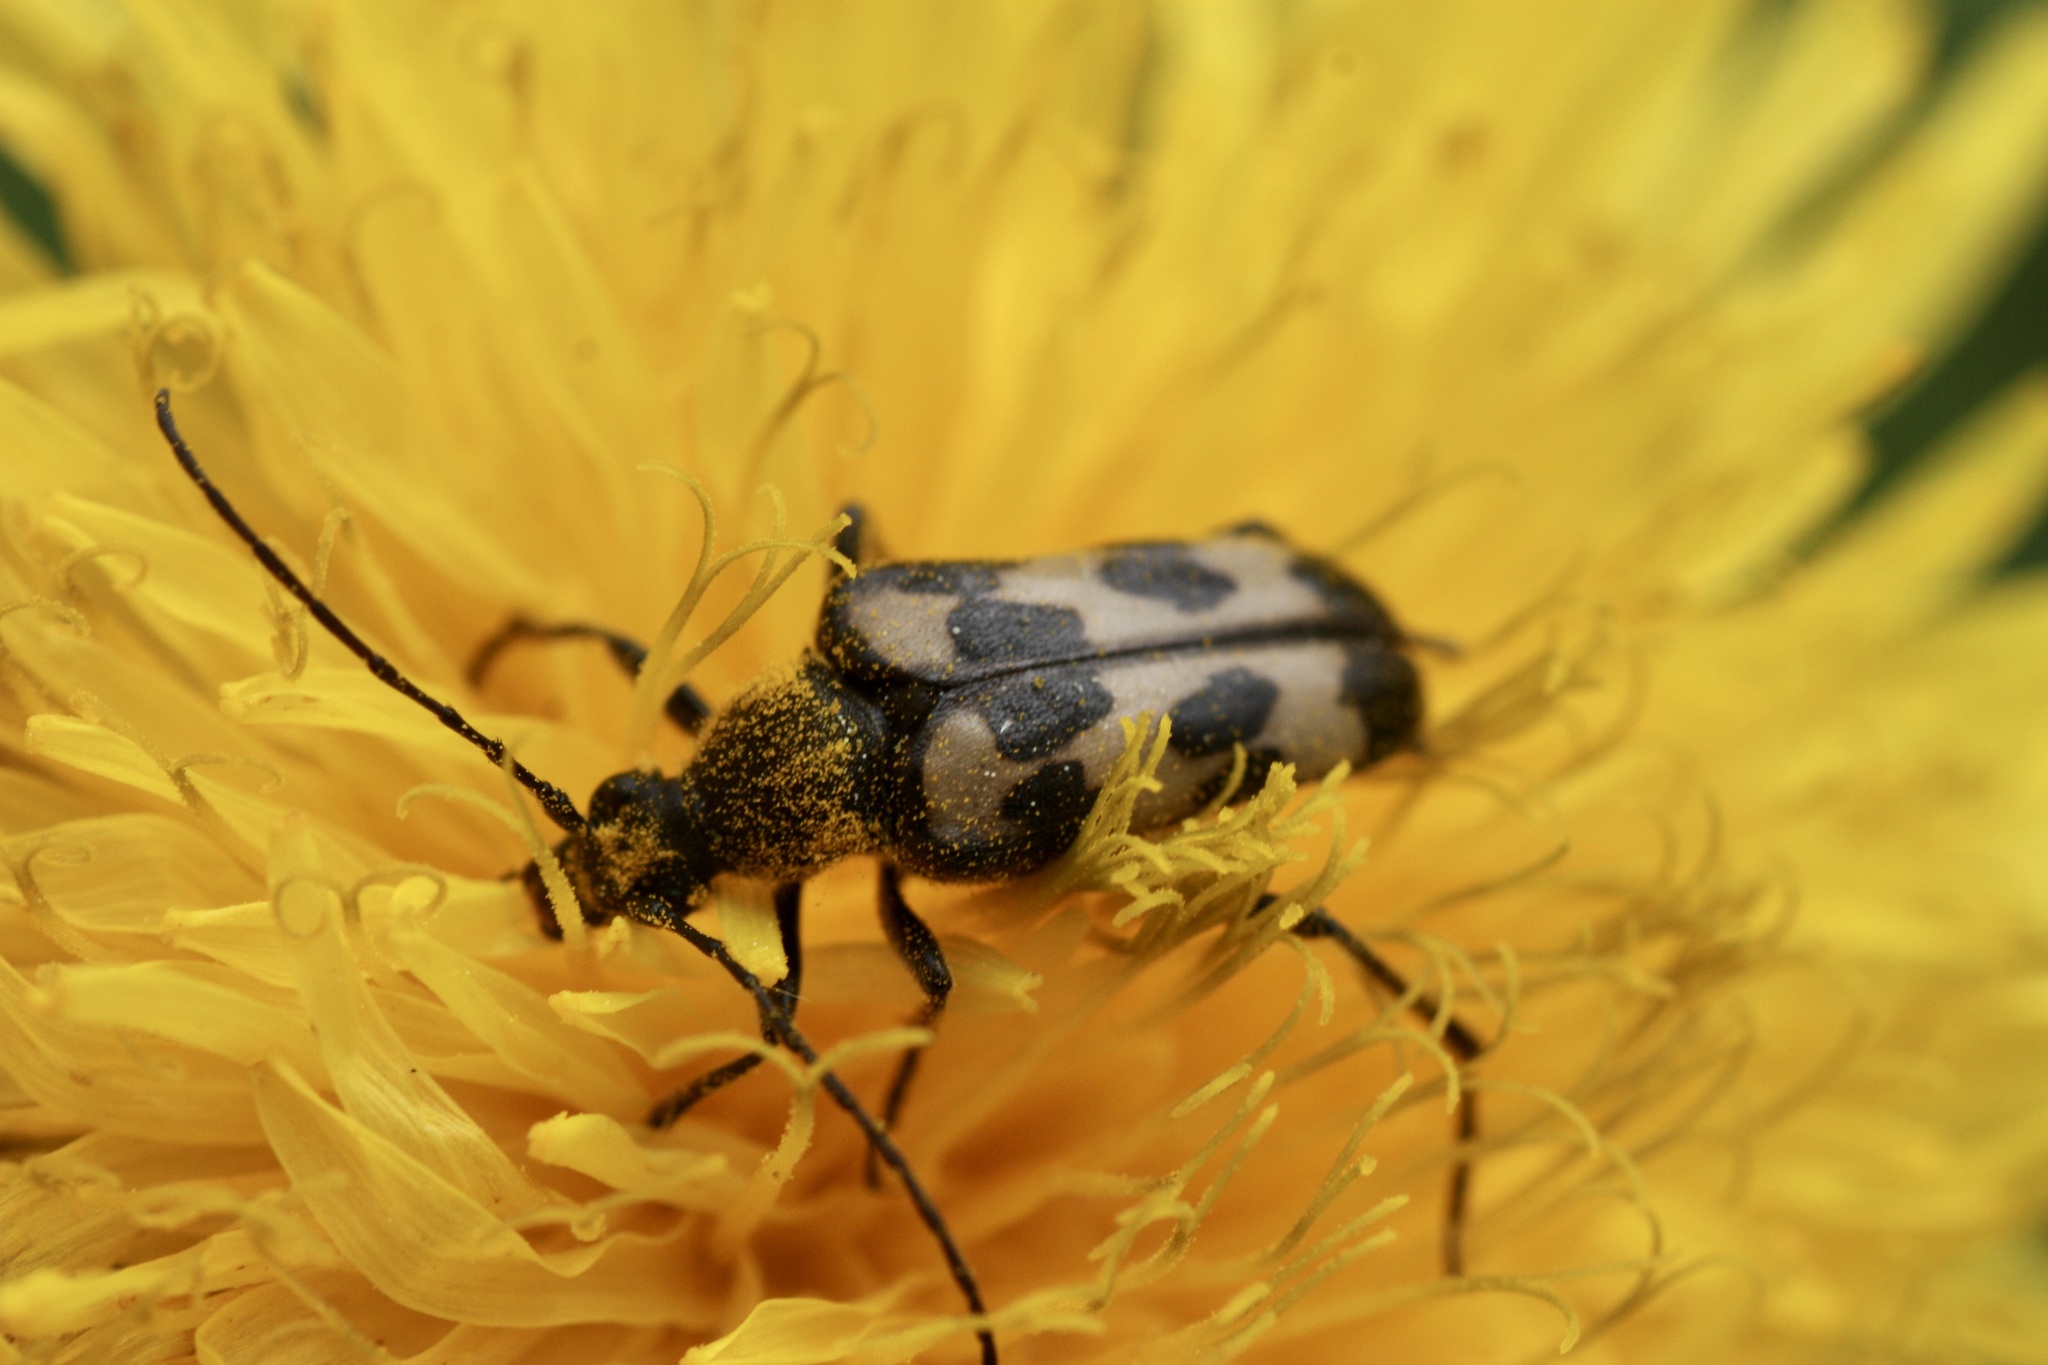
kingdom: Animalia
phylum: Arthropoda
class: Insecta
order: Coleoptera
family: Cerambycidae
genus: Judolia
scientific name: Judolia montivagans
